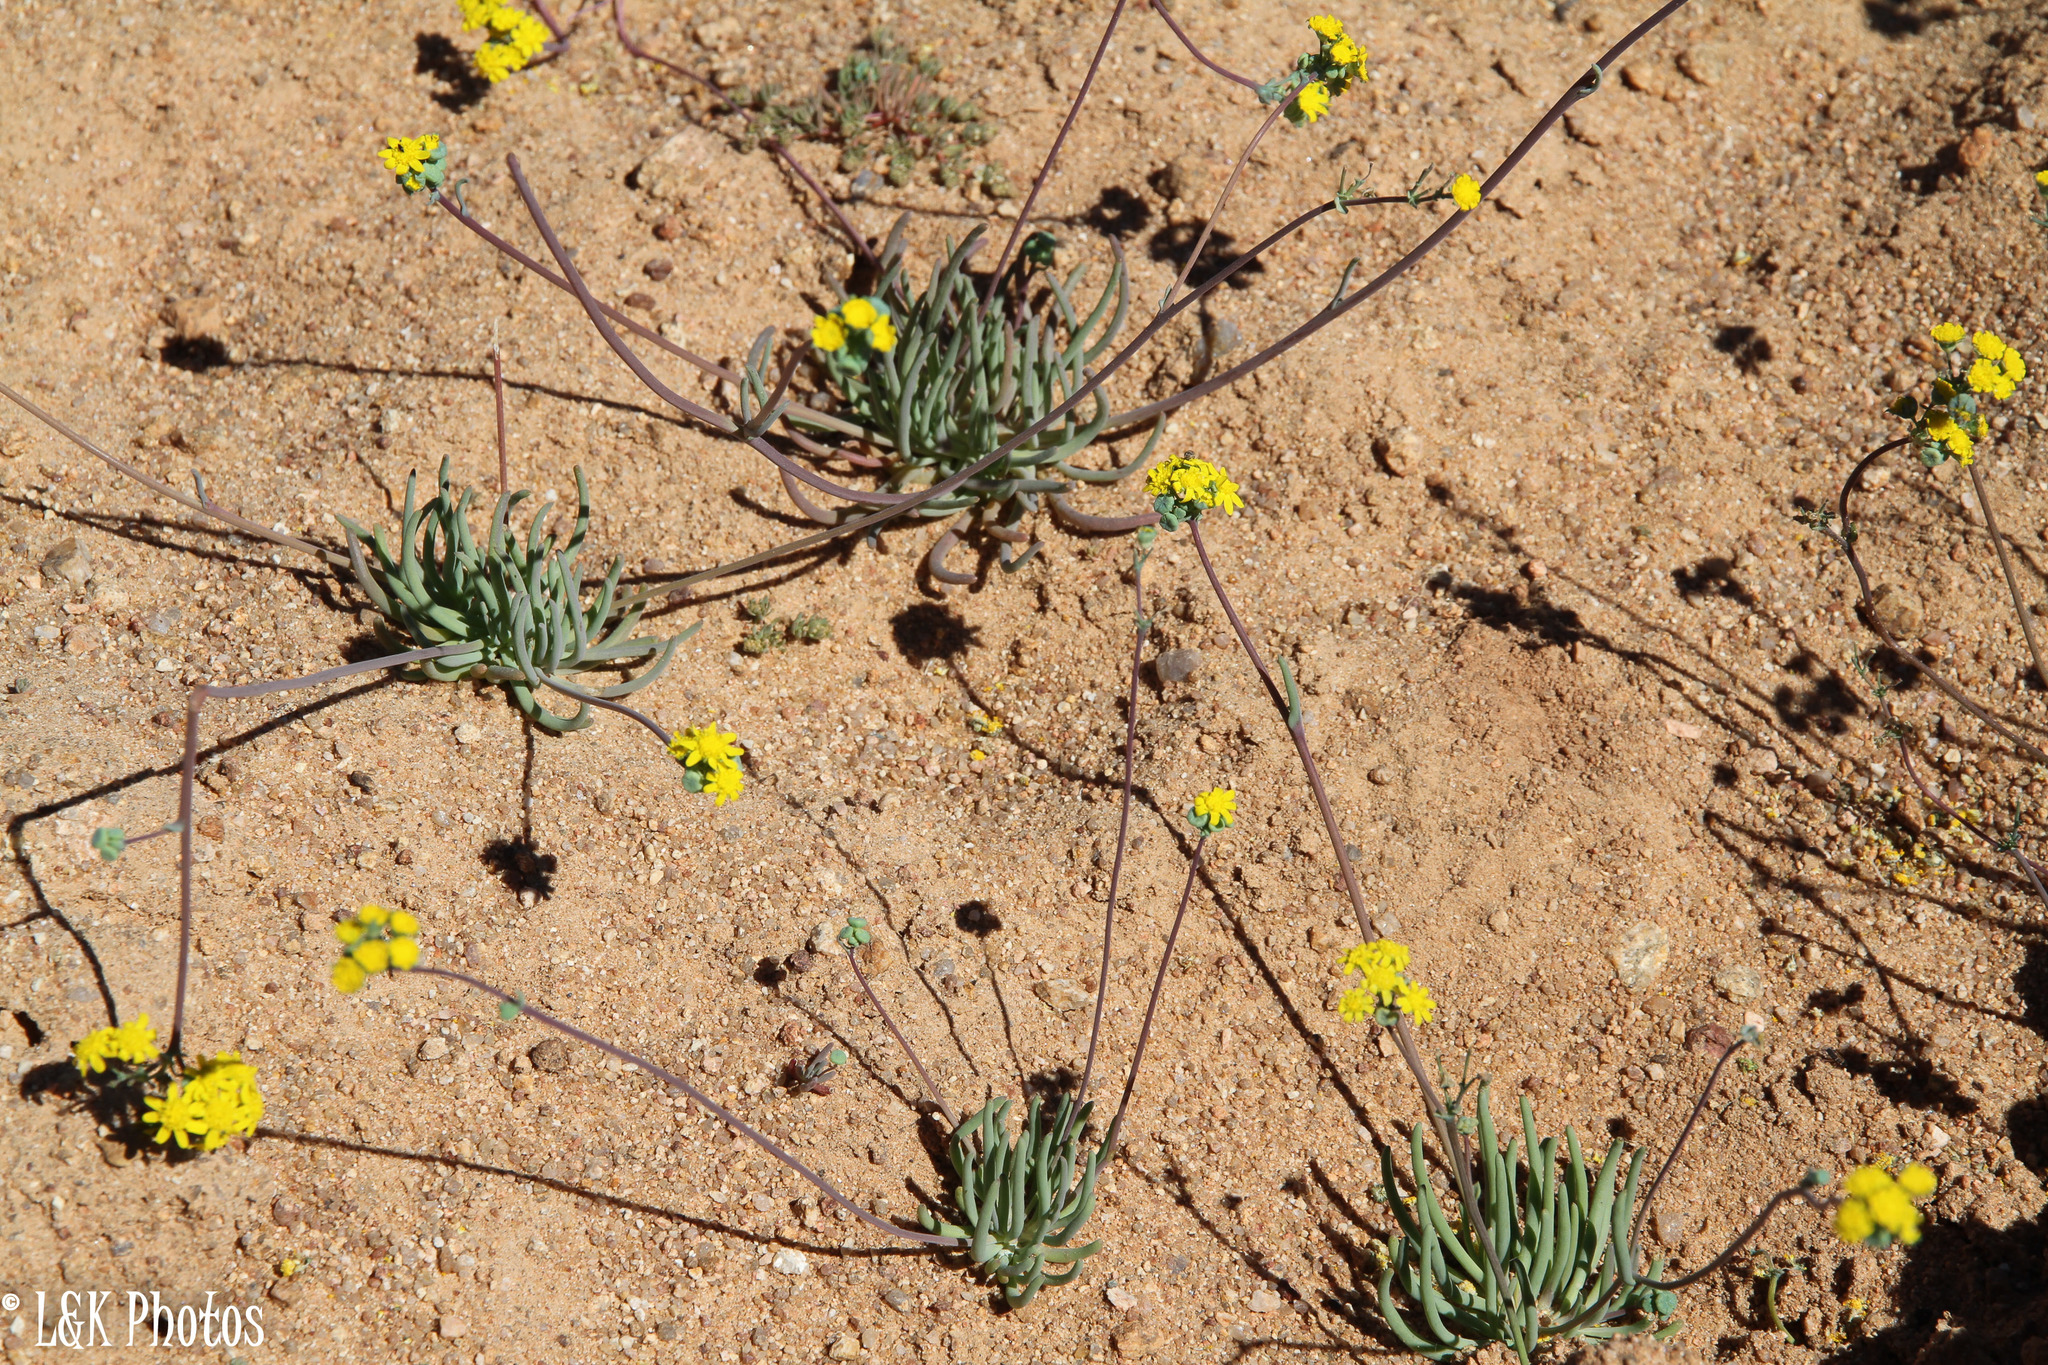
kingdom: Plantae
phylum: Tracheophyta
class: Magnoliopsida
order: Asterales
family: Asteraceae
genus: Gymnodiscus
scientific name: Gymnodiscus linearifolius
